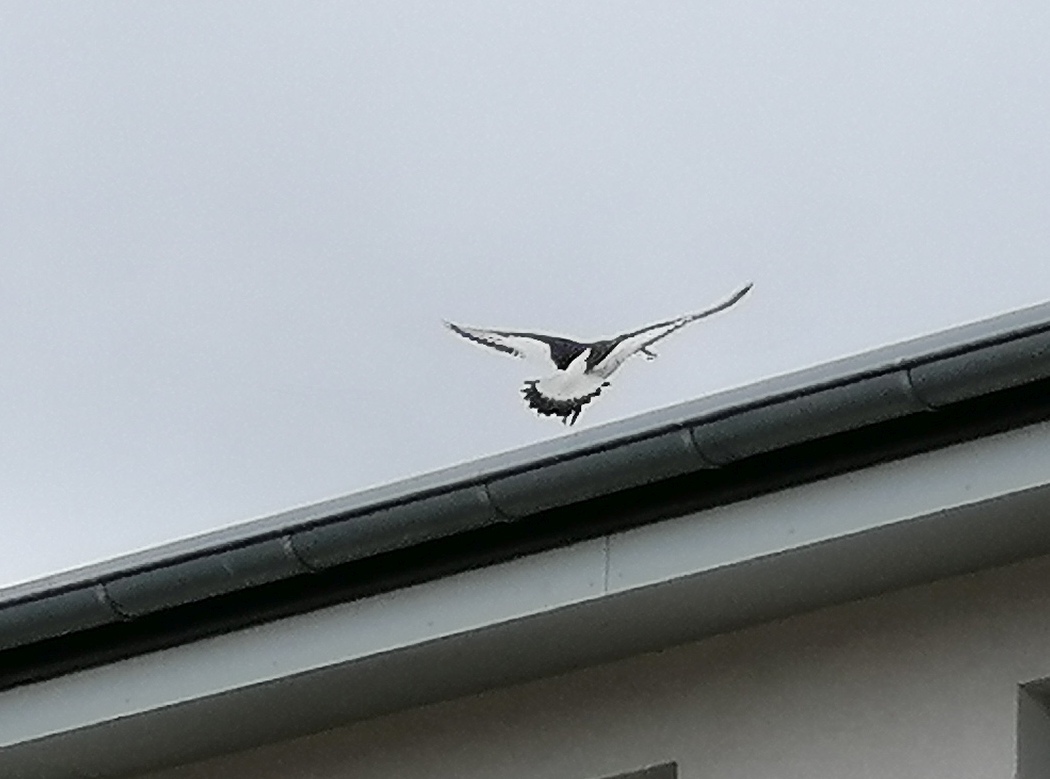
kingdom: Animalia
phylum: Chordata
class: Aves
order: Charadriiformes
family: Haematopodidae
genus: Haematopus
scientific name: Haematopus ostralegus
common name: Eurasian oystercatcher
